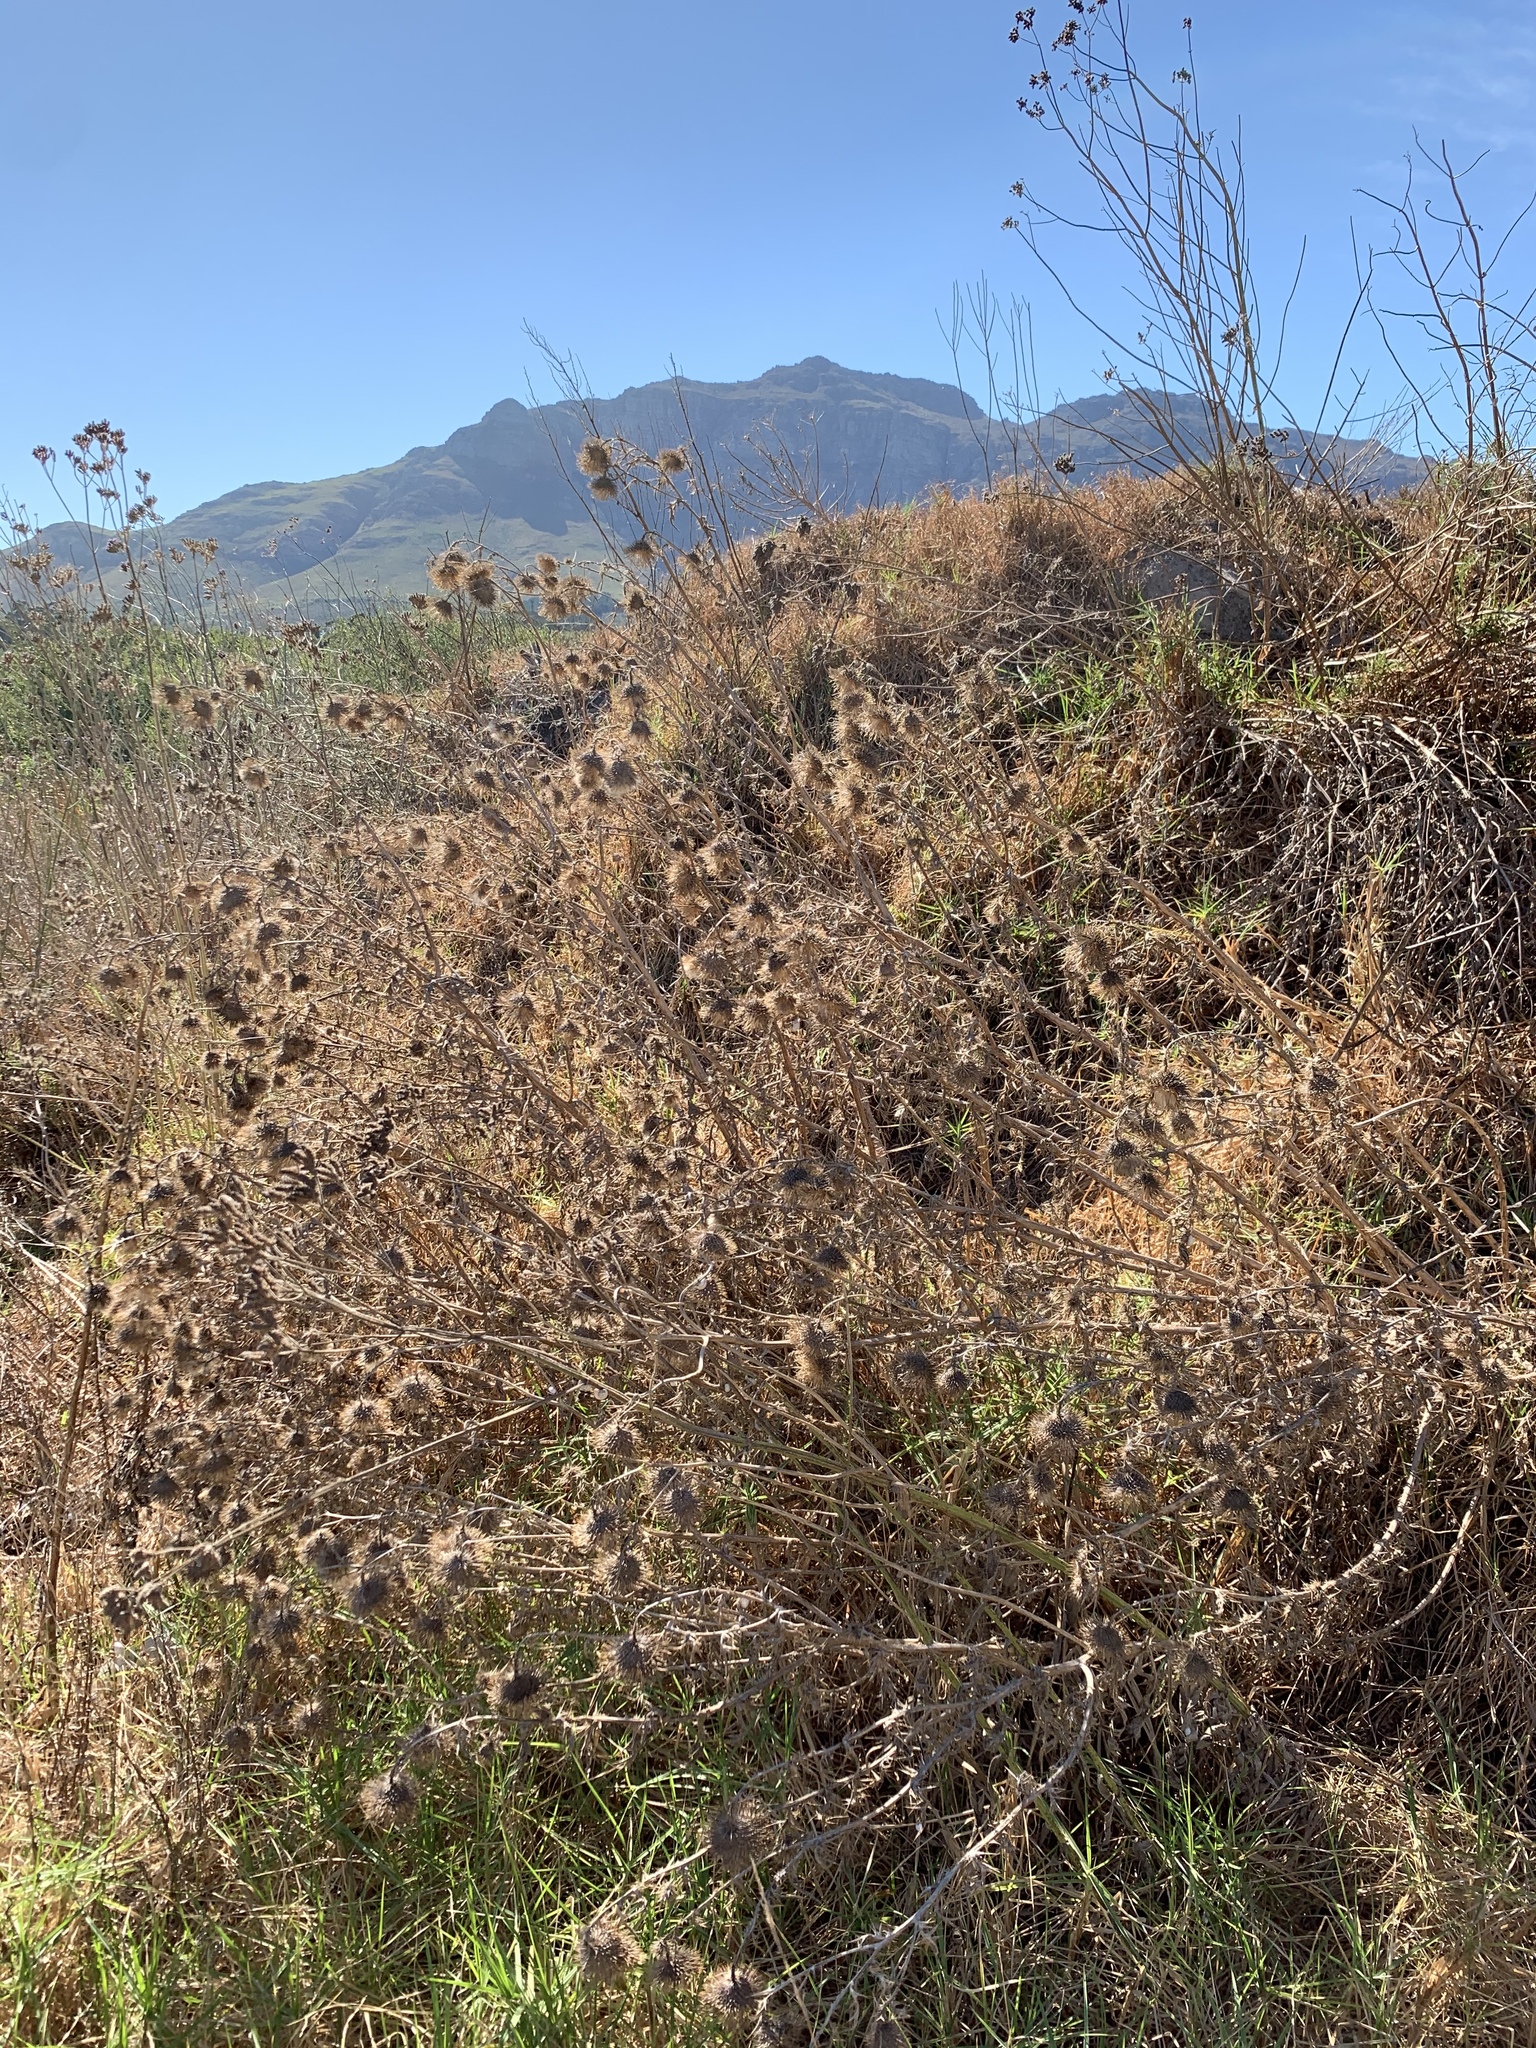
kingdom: Plantae
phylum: Tracheophyta
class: Magnoliopsida
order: Asterales
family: Asteraceae
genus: Cirsium
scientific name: Cirsium vulgare
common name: Bull thistle
